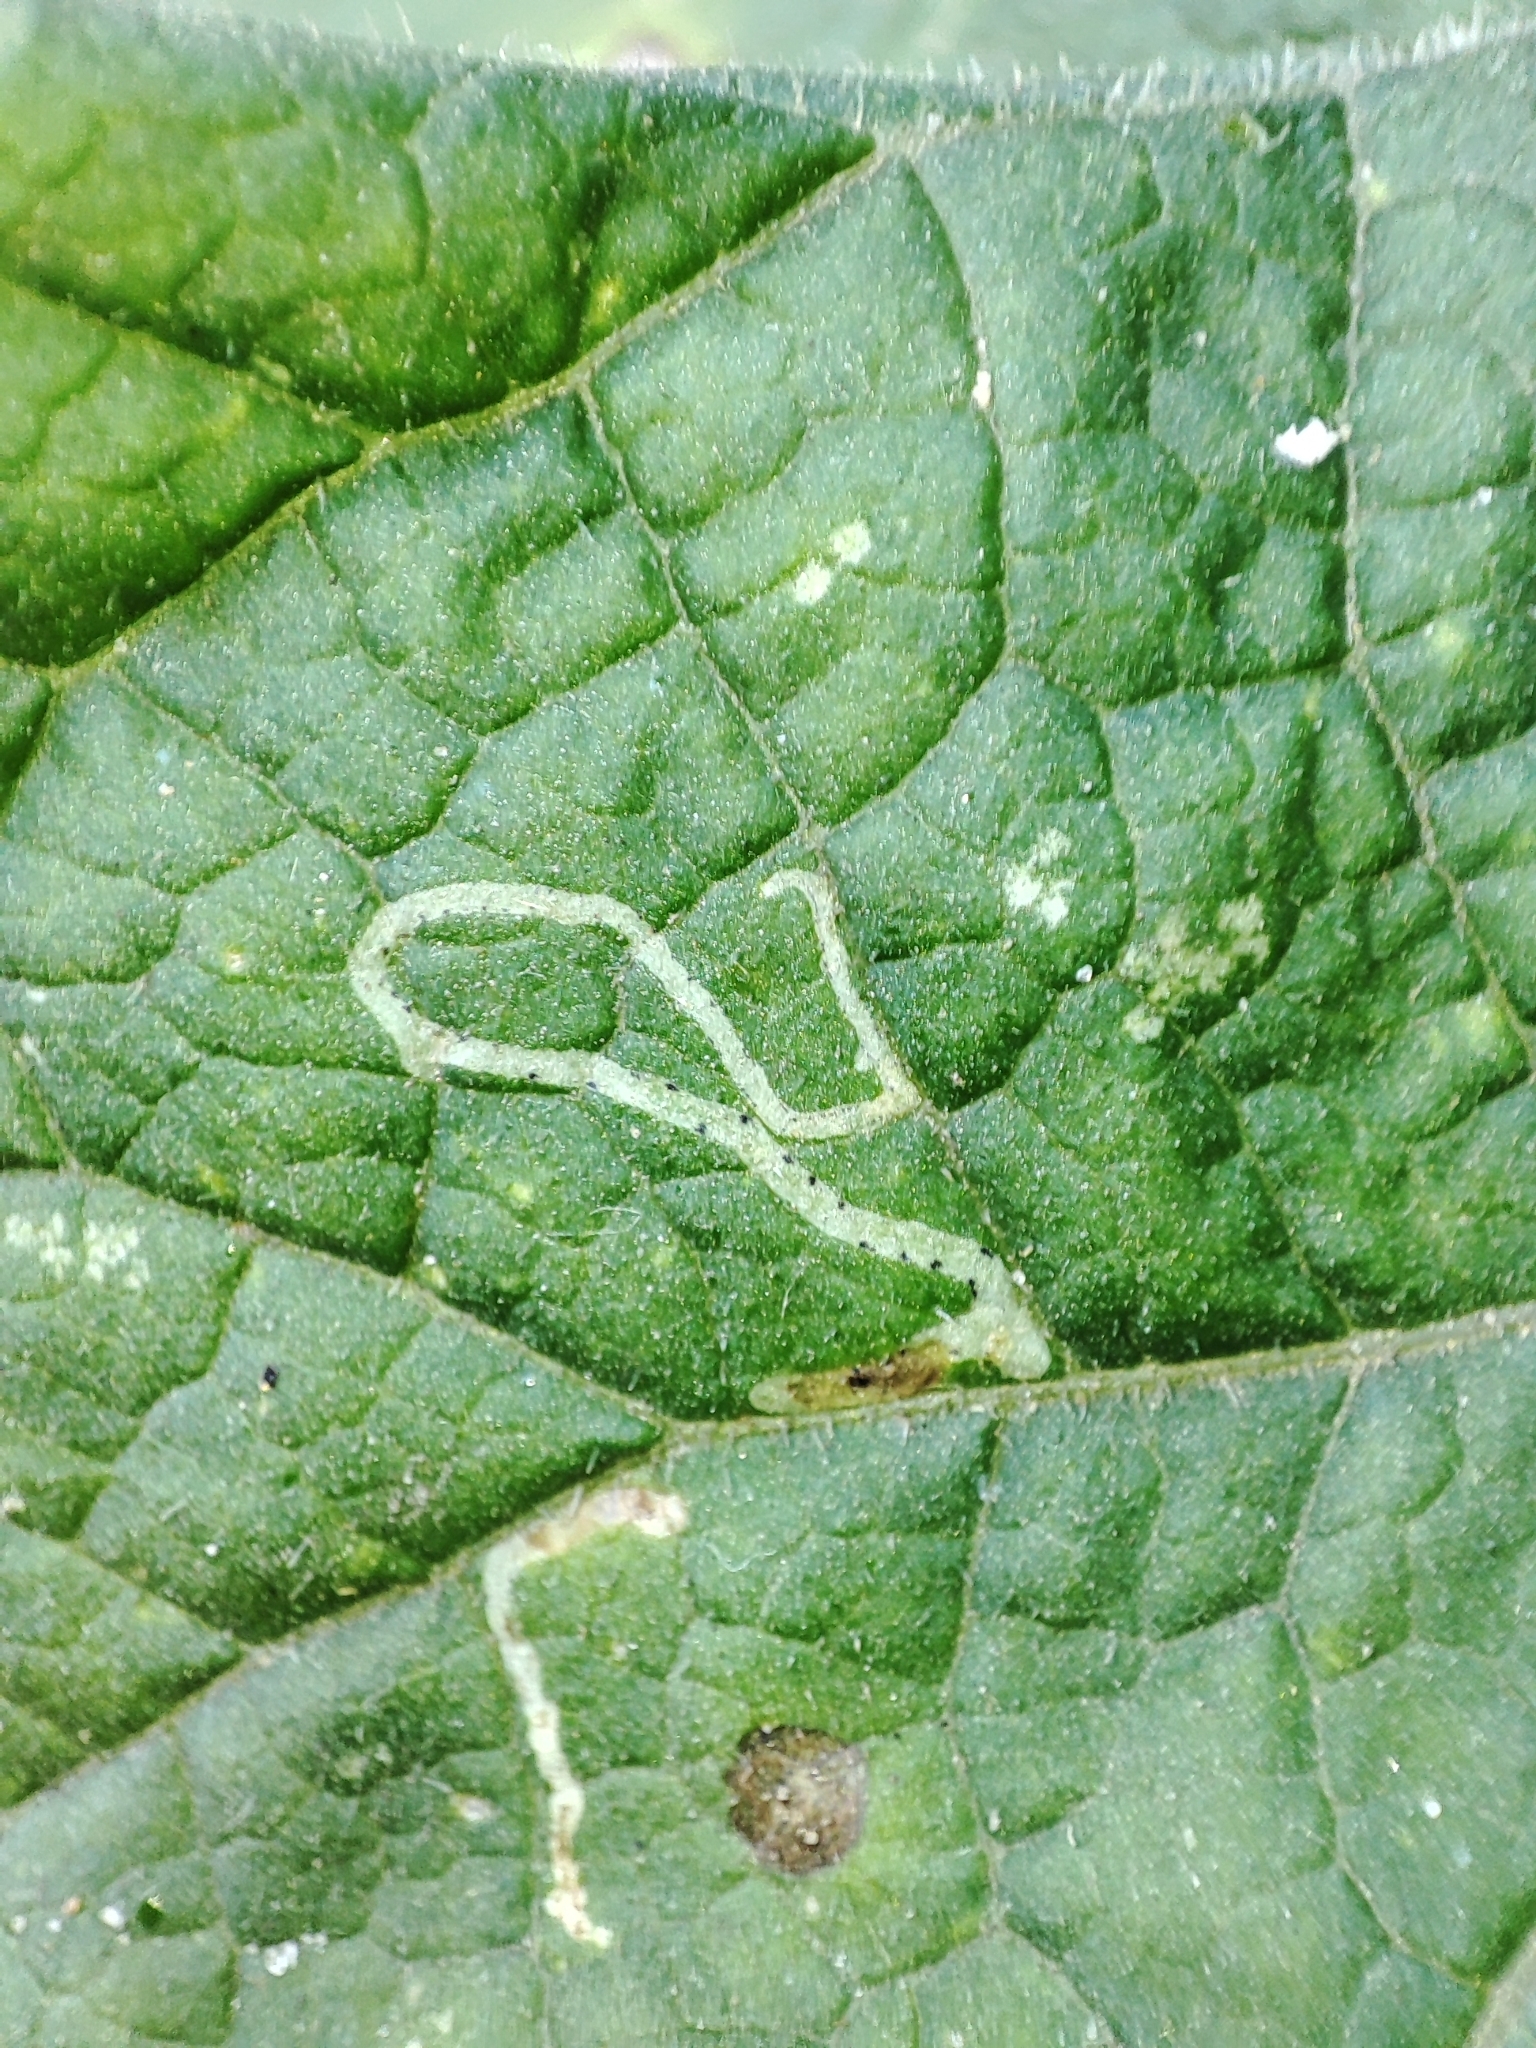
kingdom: Plantae
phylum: Tracheophyta
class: Magnoliopsida
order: Asterales
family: Asteraceae
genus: Arctium
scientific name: Arctium nothum
